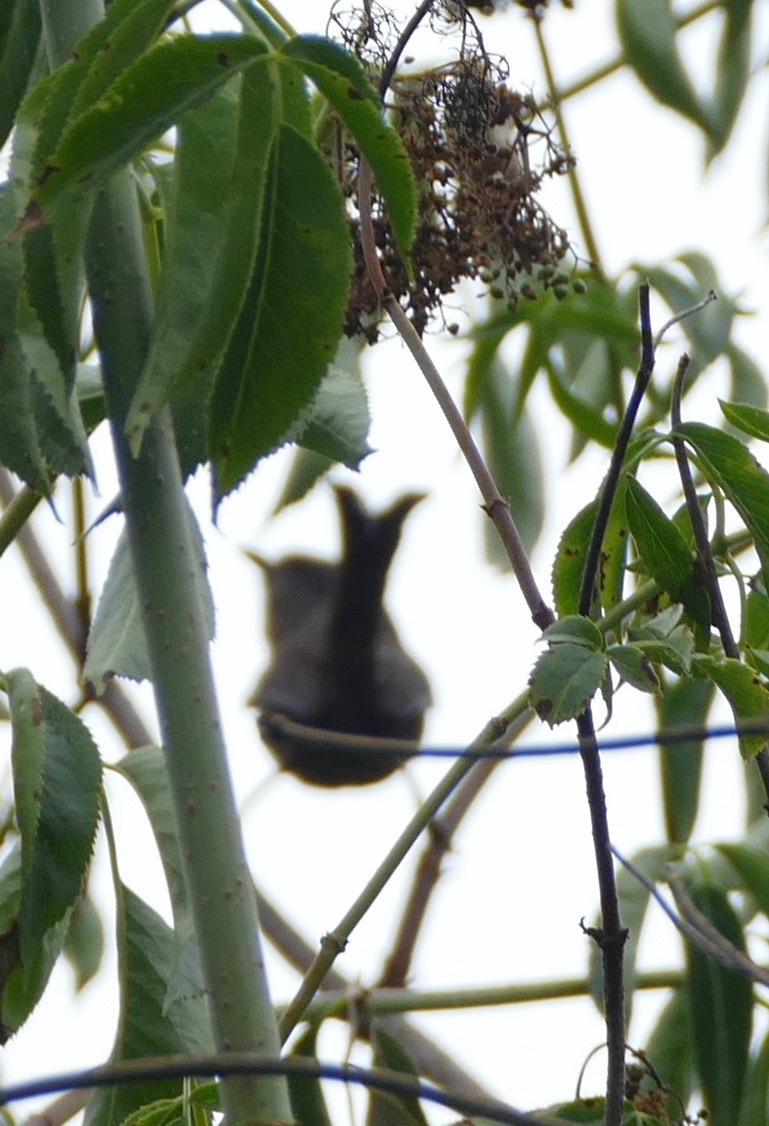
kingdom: Animalia
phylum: Chordata
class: Aves
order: Passeriformes
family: Sylviidae
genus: Chamaea
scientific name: Chamaea fasciata
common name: Wrentit
